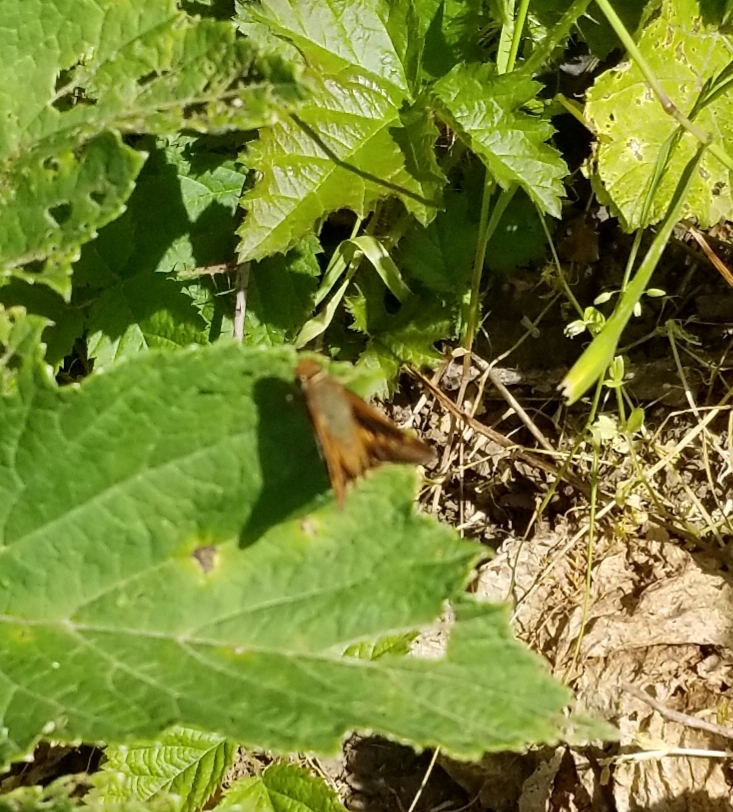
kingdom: Animalia
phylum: Arthropoda
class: Insecta
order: Lepidoptera
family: Hesperiidae
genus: Lon
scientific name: Lon melane
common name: Umber skipper
